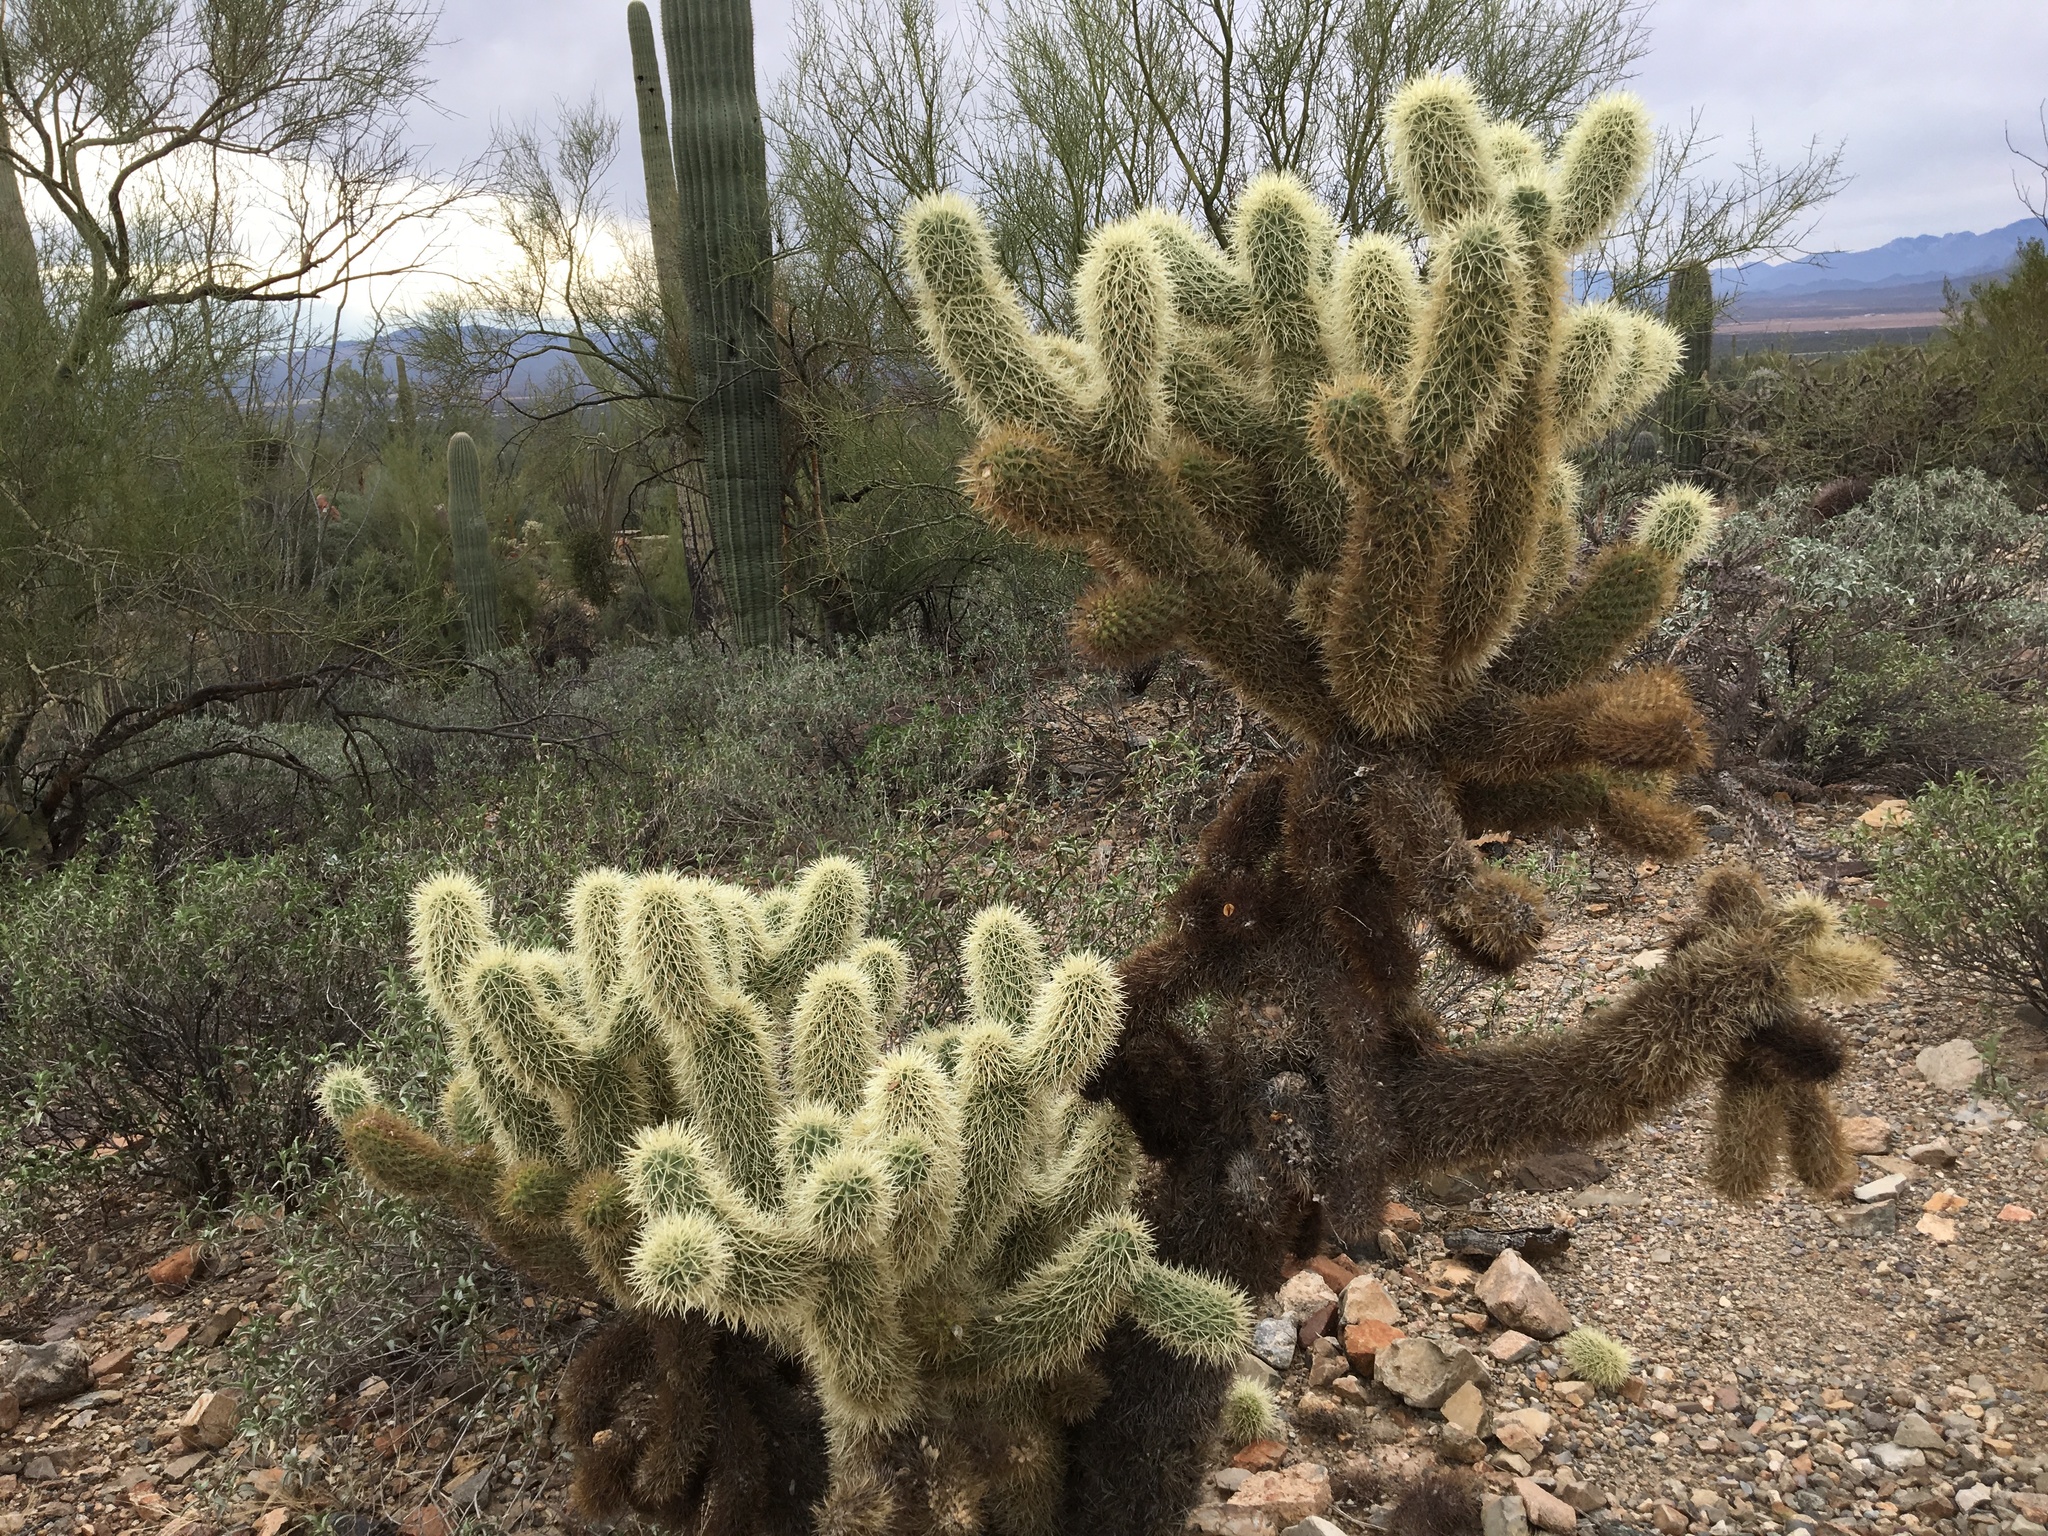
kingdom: Plantae
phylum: Tracheophyta
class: Magnoliopsida
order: Caryophyllales
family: Cactaceae
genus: Cylindropuntia
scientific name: Cylindropuntia fosbergii
